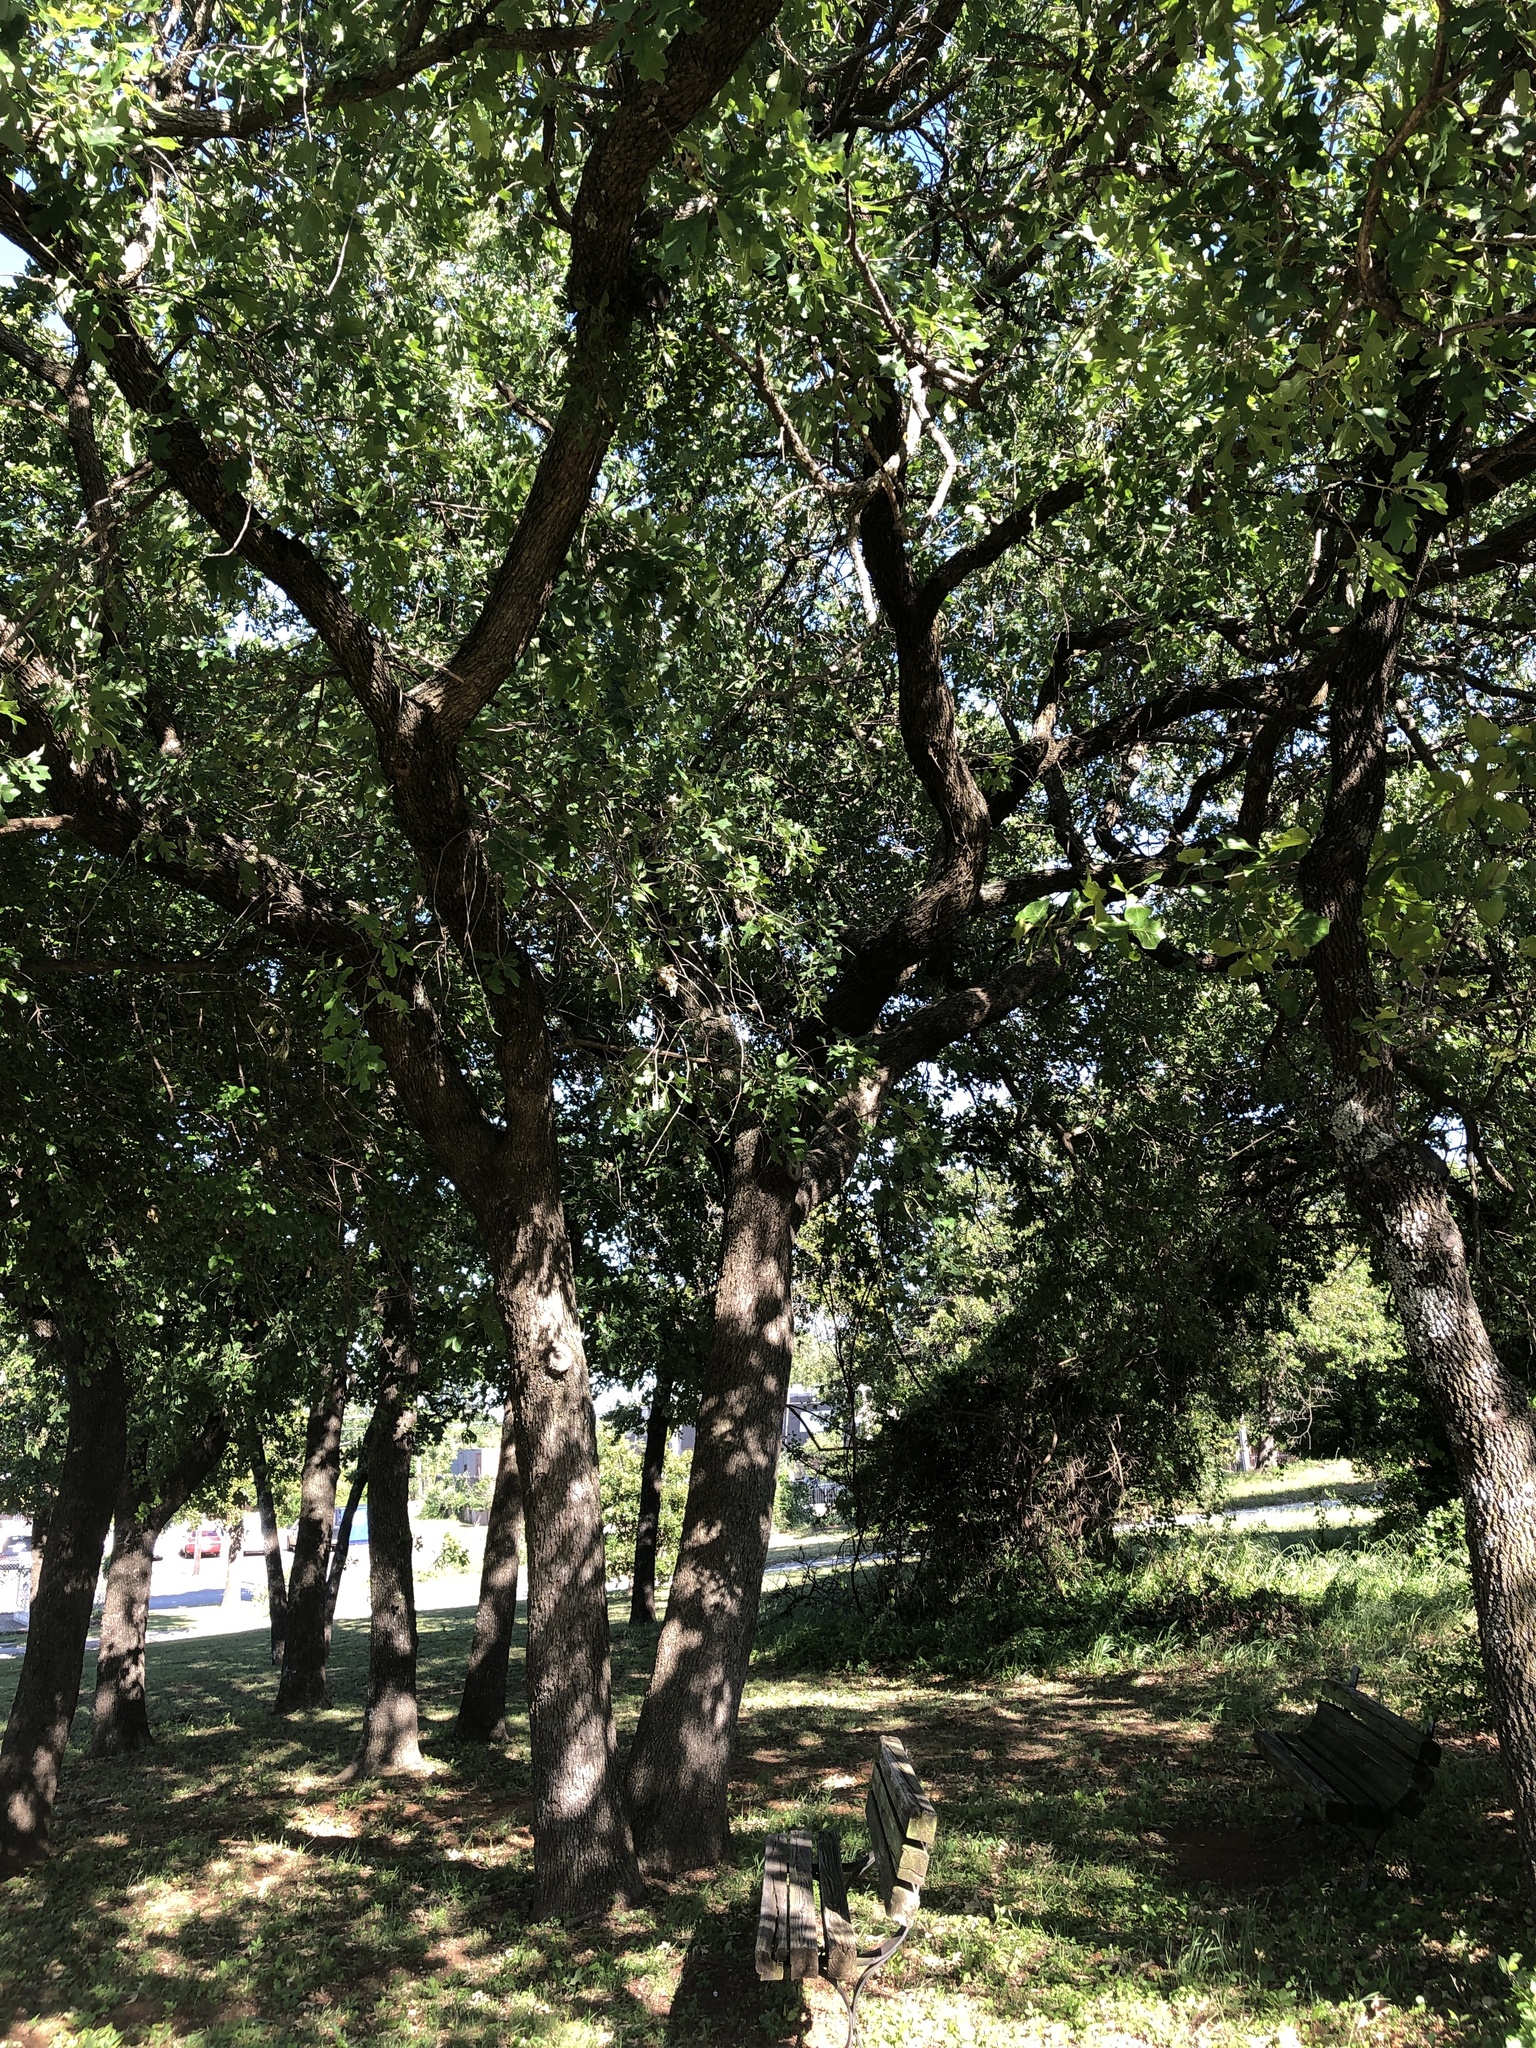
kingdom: Plantae
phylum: Tracheophyta
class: Magnoliopsida
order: Fagales
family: Fagaceae
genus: Quercus
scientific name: Quercus stellata
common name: Post oak
